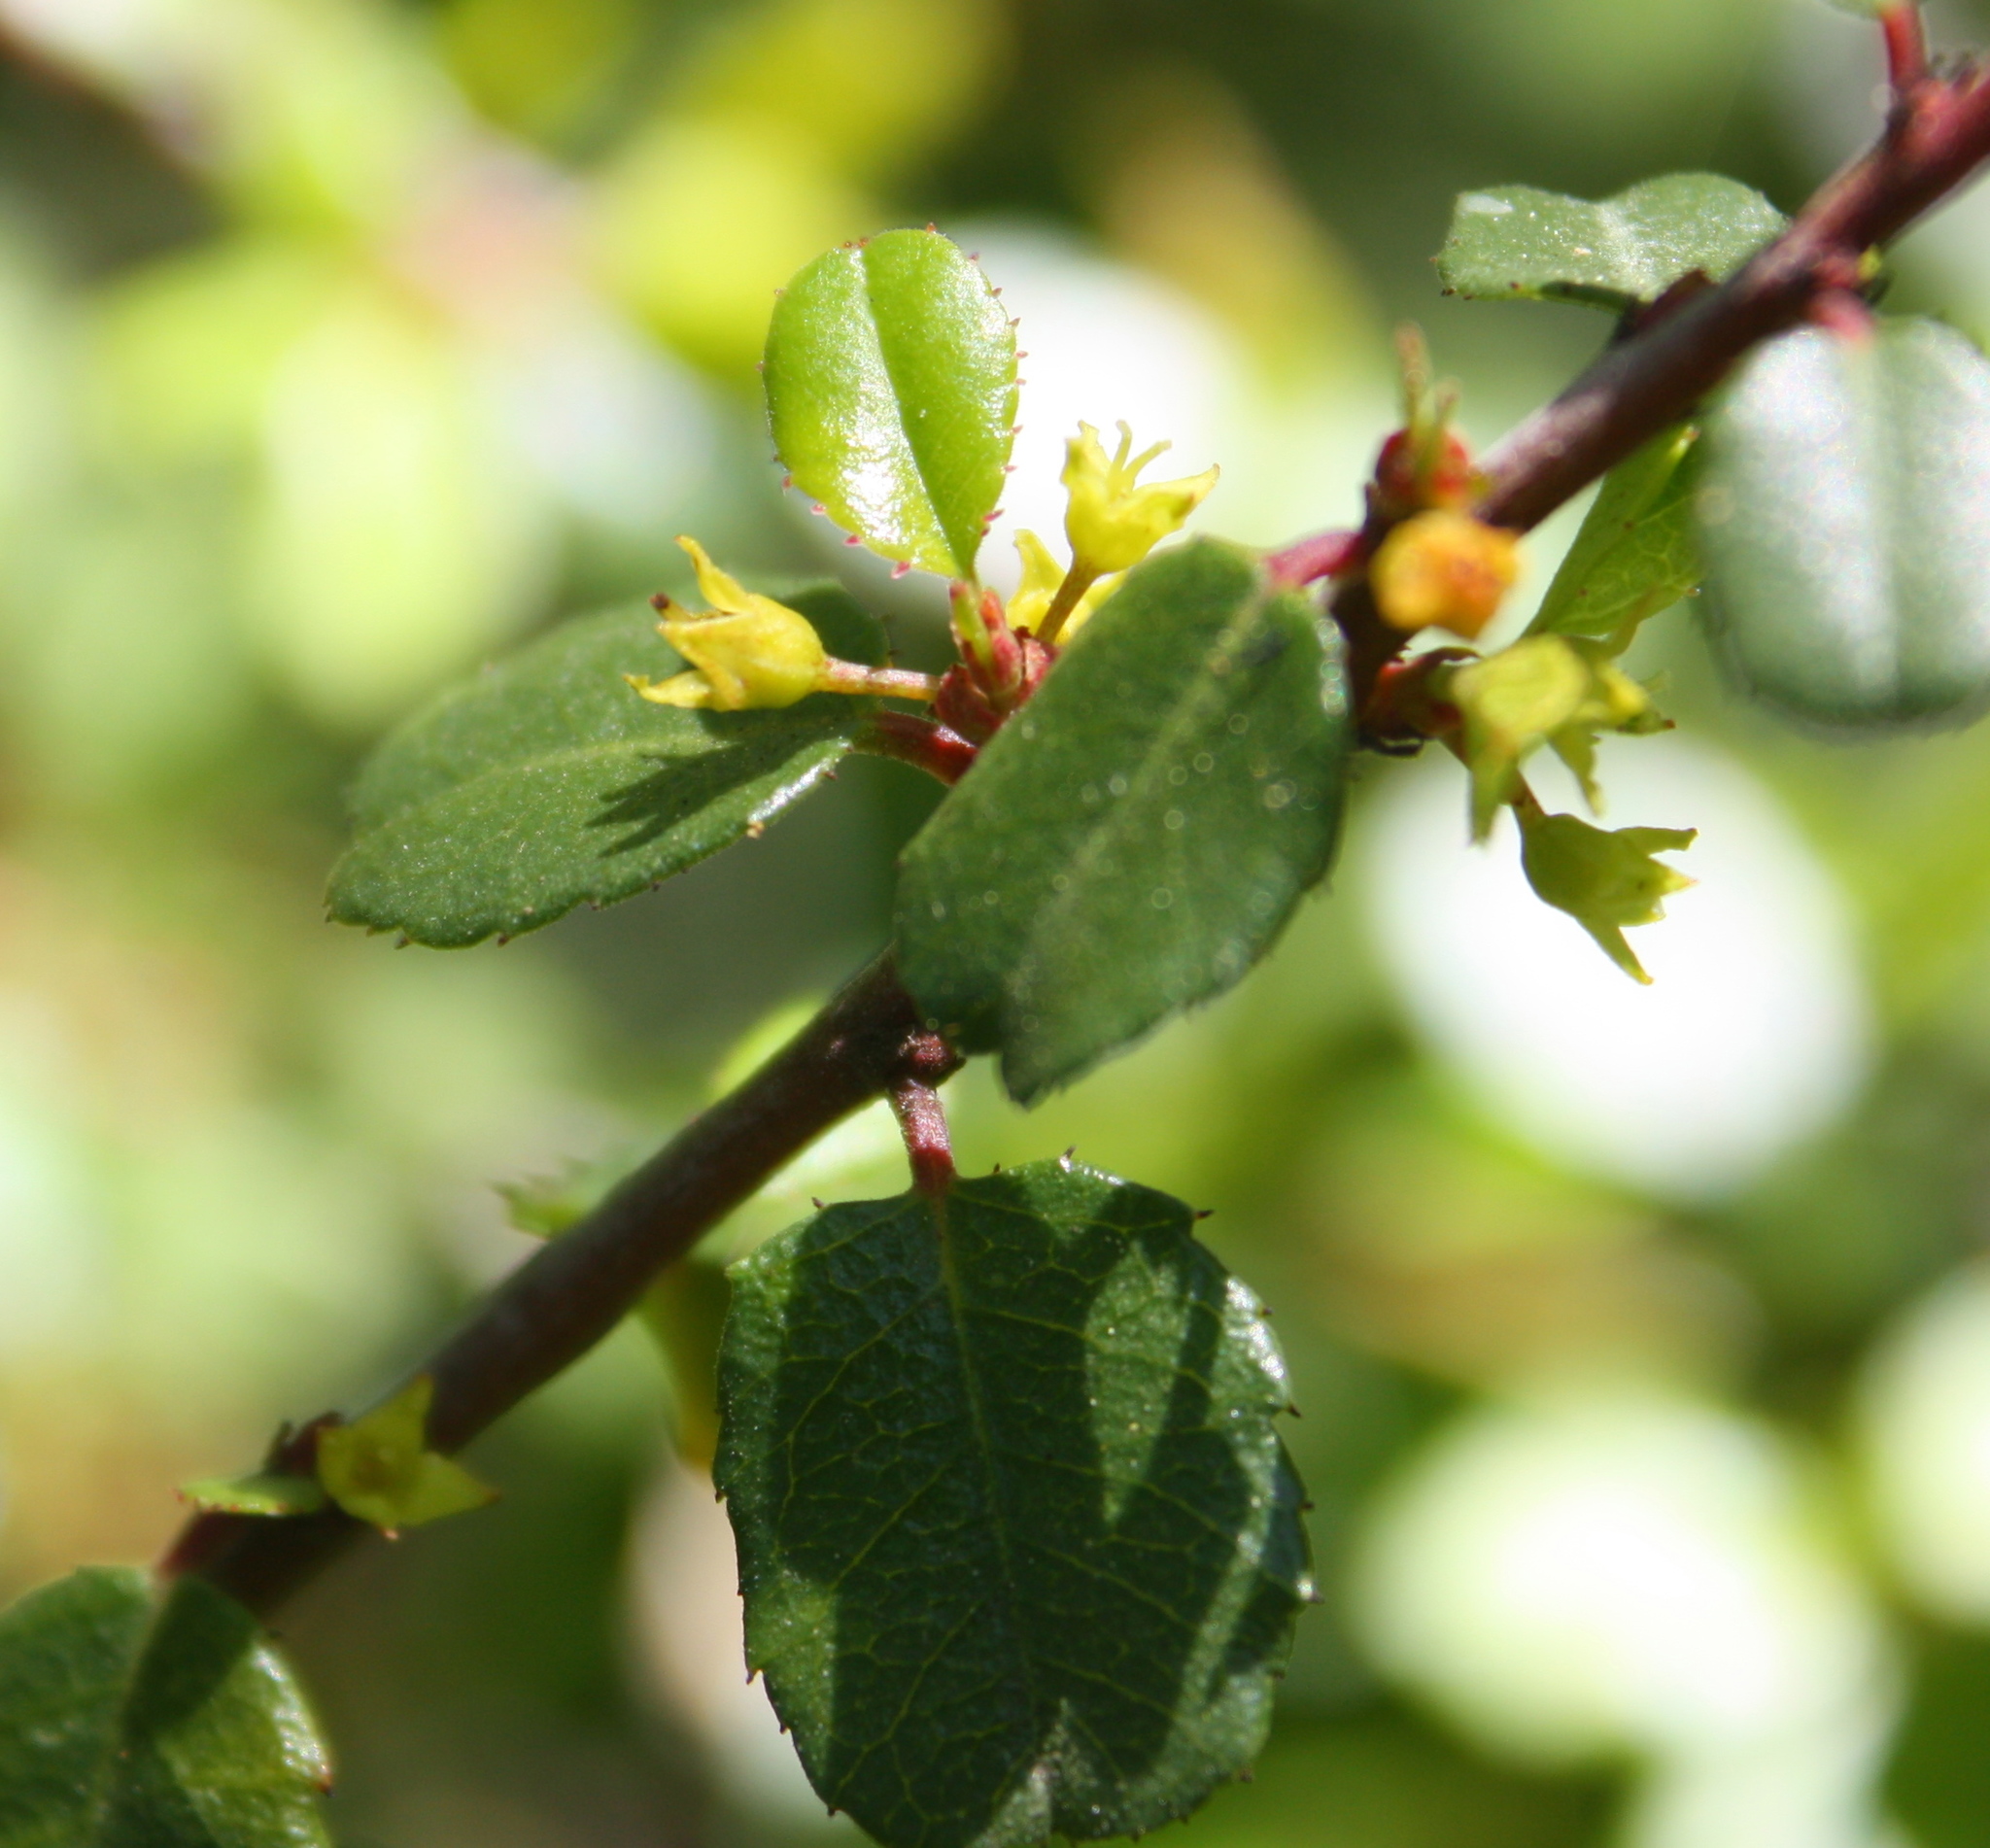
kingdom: Plantae
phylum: Tracheophyta
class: Magnoliopsida
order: Rosales
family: Rhamnaceae
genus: Endotropis
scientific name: Endotropis crocea
